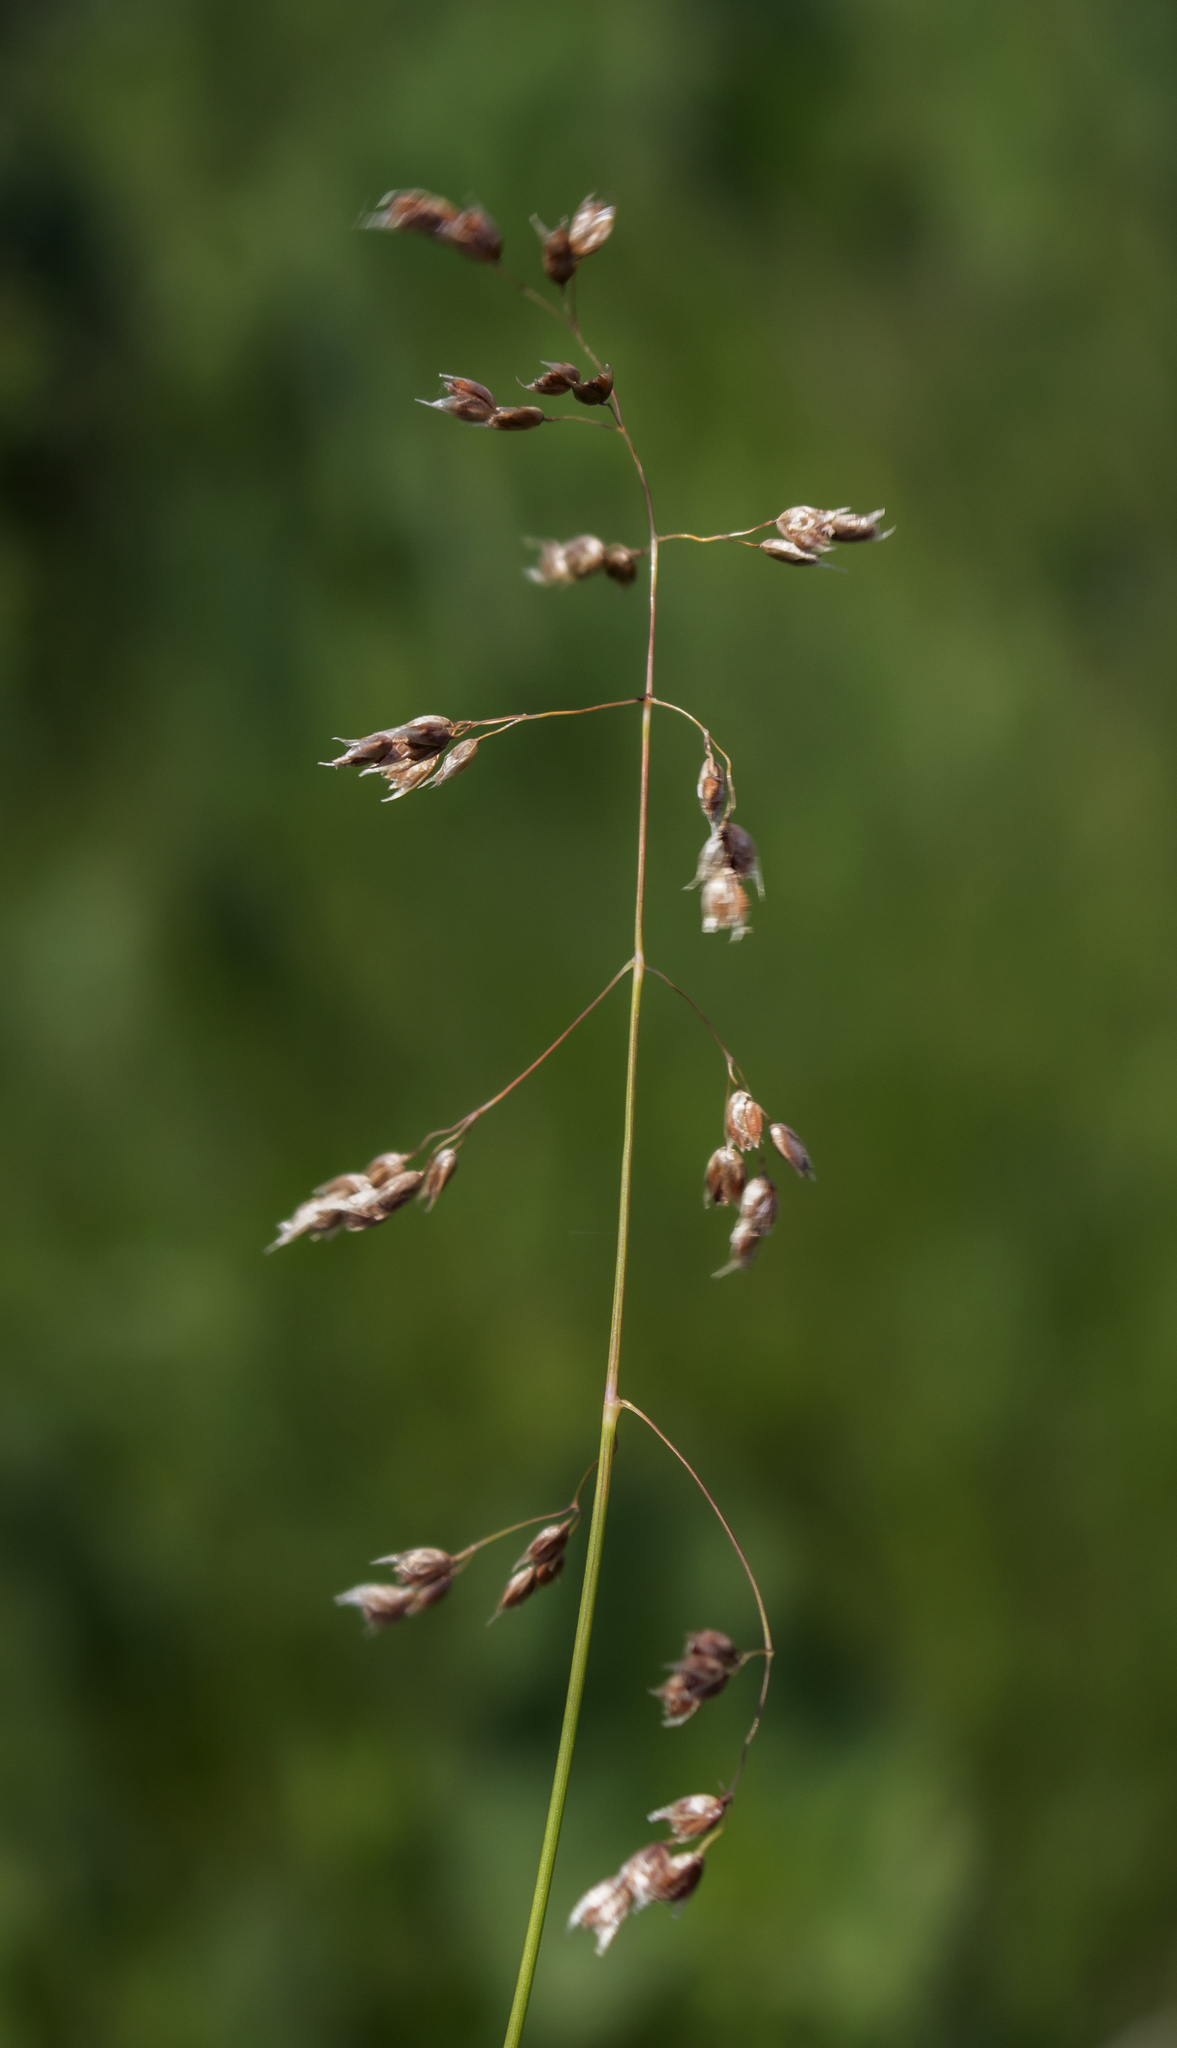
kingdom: Plantae
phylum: Tracheophyta
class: Liliopsida
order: Poales
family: Poaceae
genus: Anthoxanthum
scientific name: Anthoxanthum nitens
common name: Holy grass
